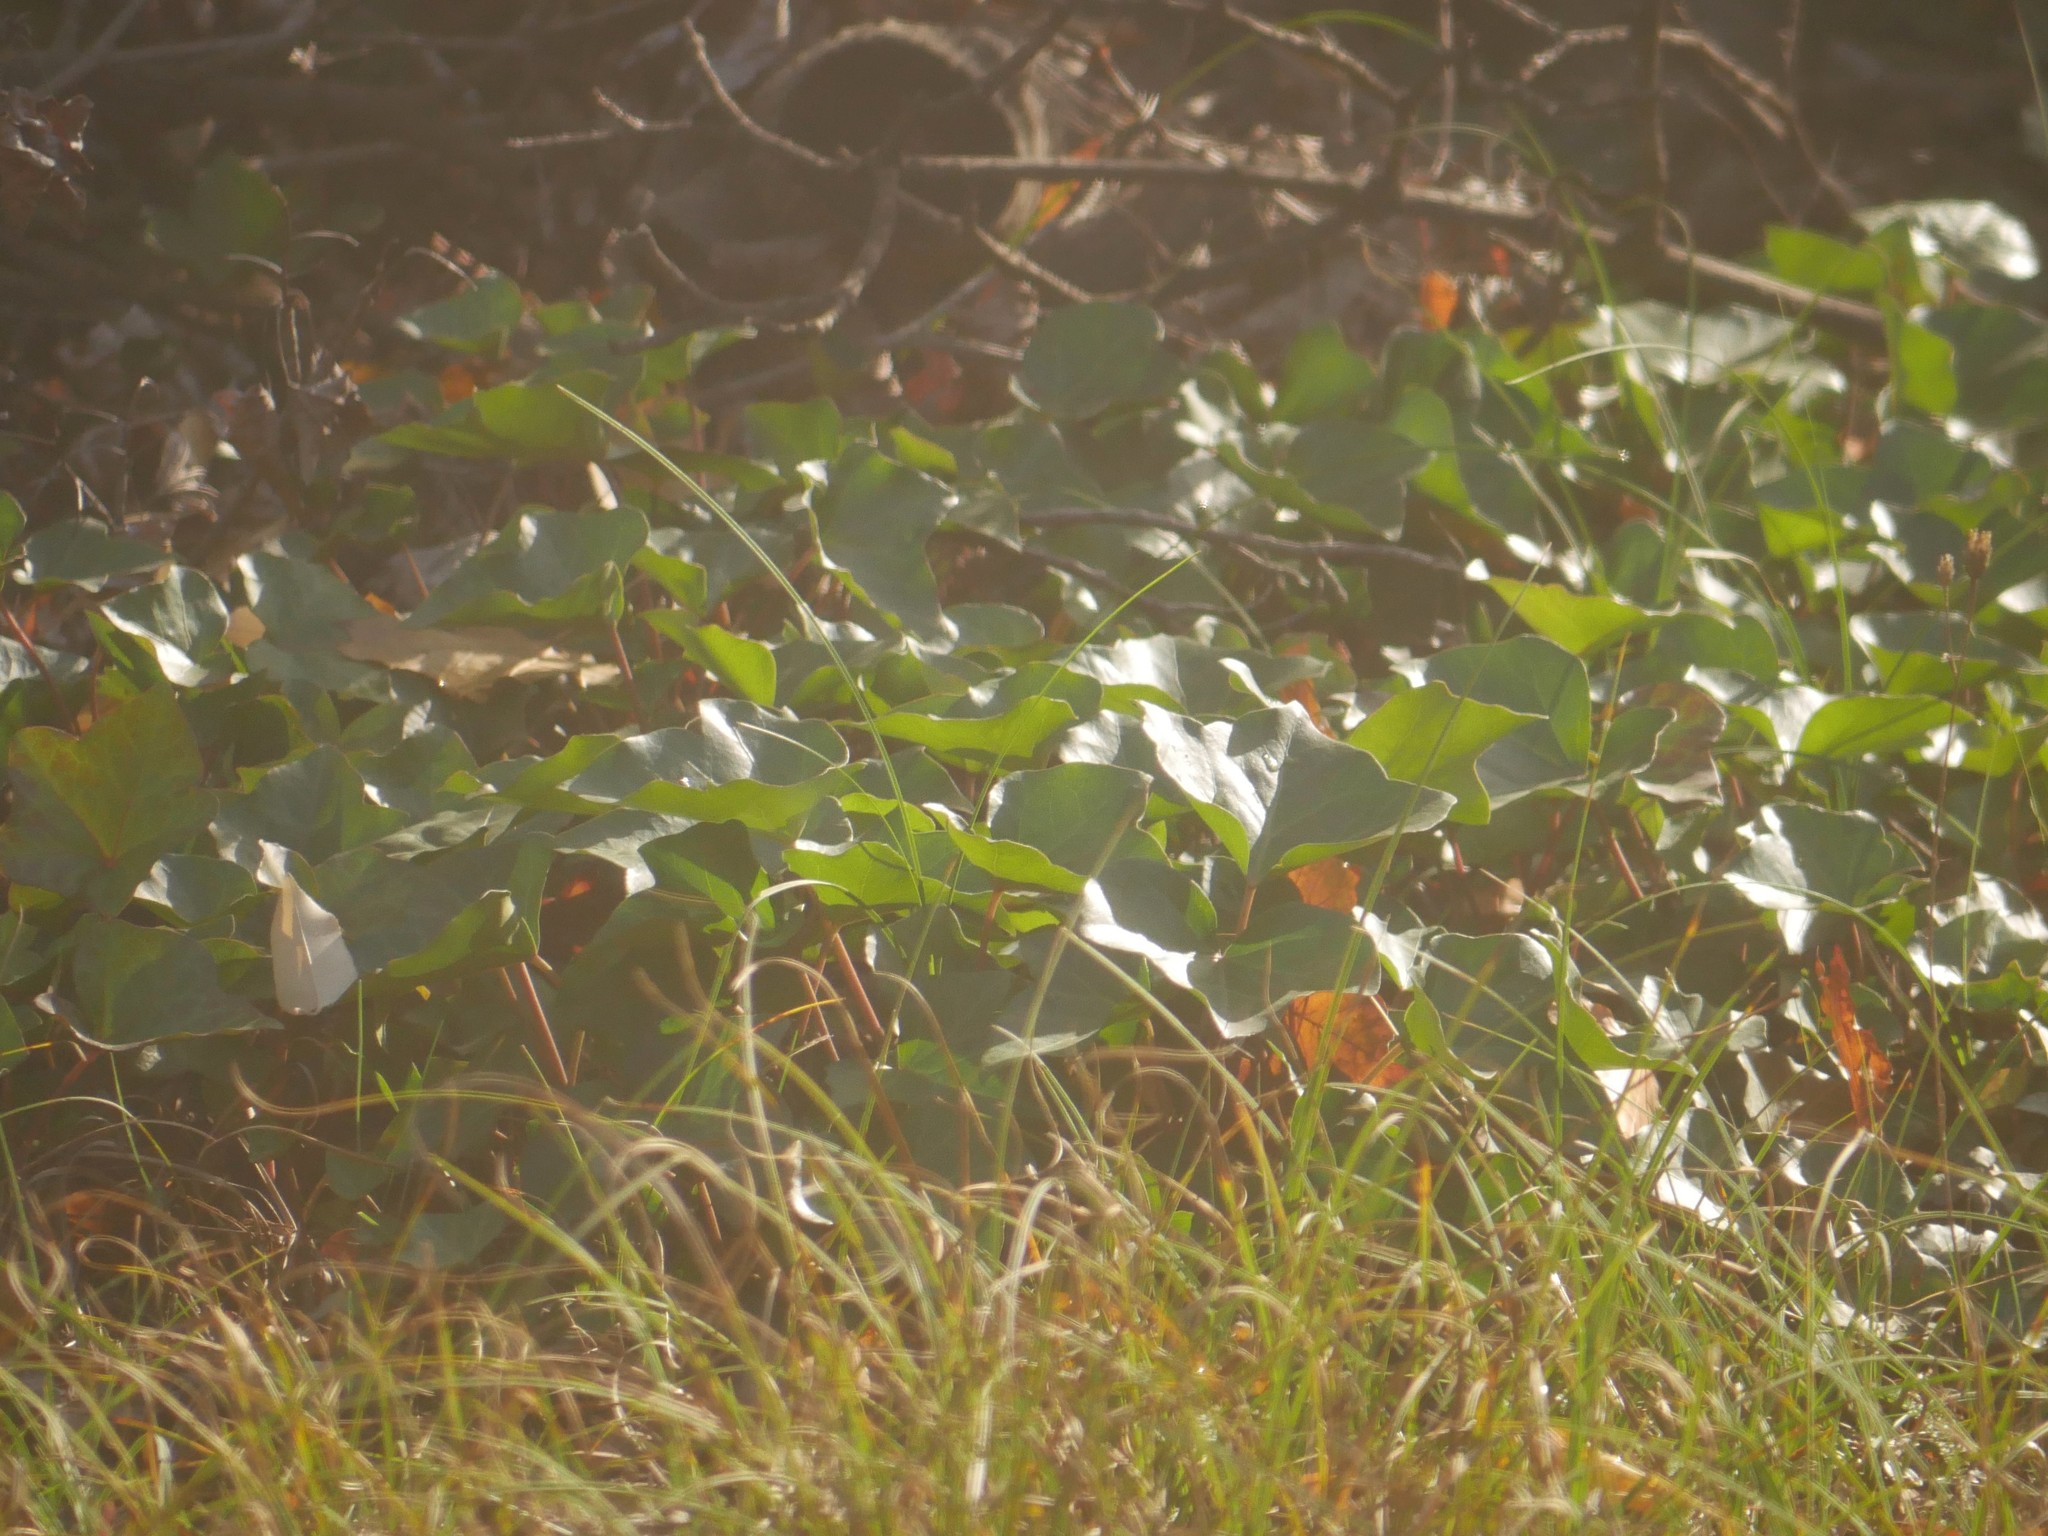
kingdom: Plantae
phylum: Tracheophyta
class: Magnoliopsida
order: Apiales
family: Araliaceae
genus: Hedera
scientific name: Hedera helix
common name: Ivy
